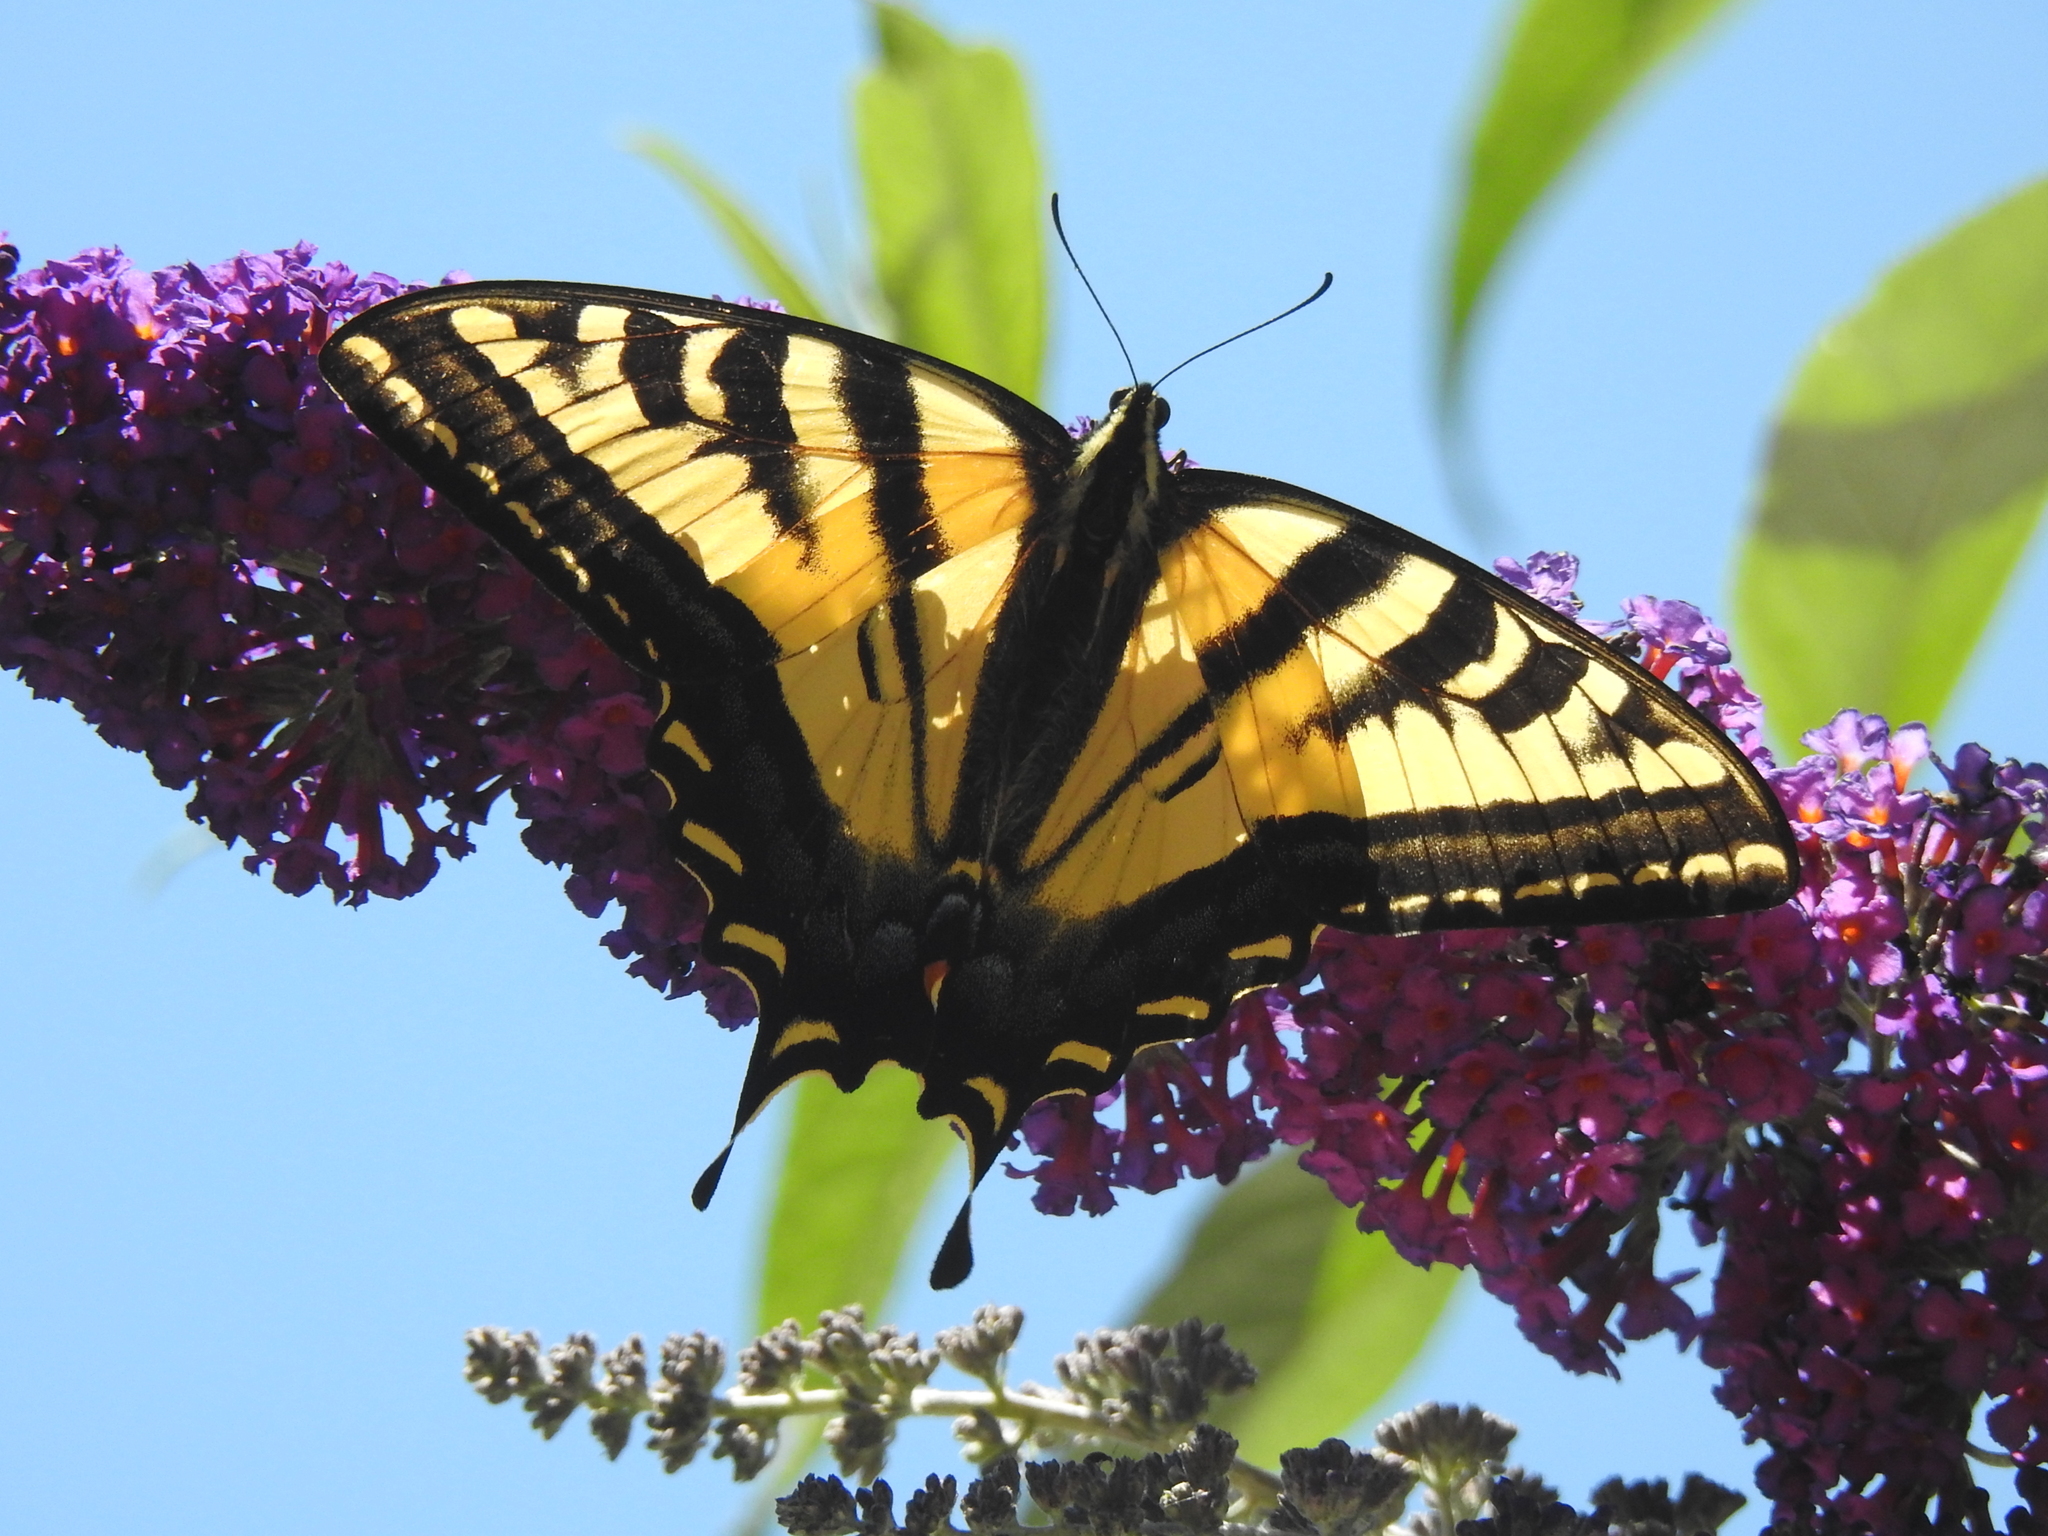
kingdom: Animalia
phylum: Arthropoda
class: Insecta
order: Lepidoptera
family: Papilionidae
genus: Papilio
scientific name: Papilio rutulus
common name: Western tiger swallowtail
